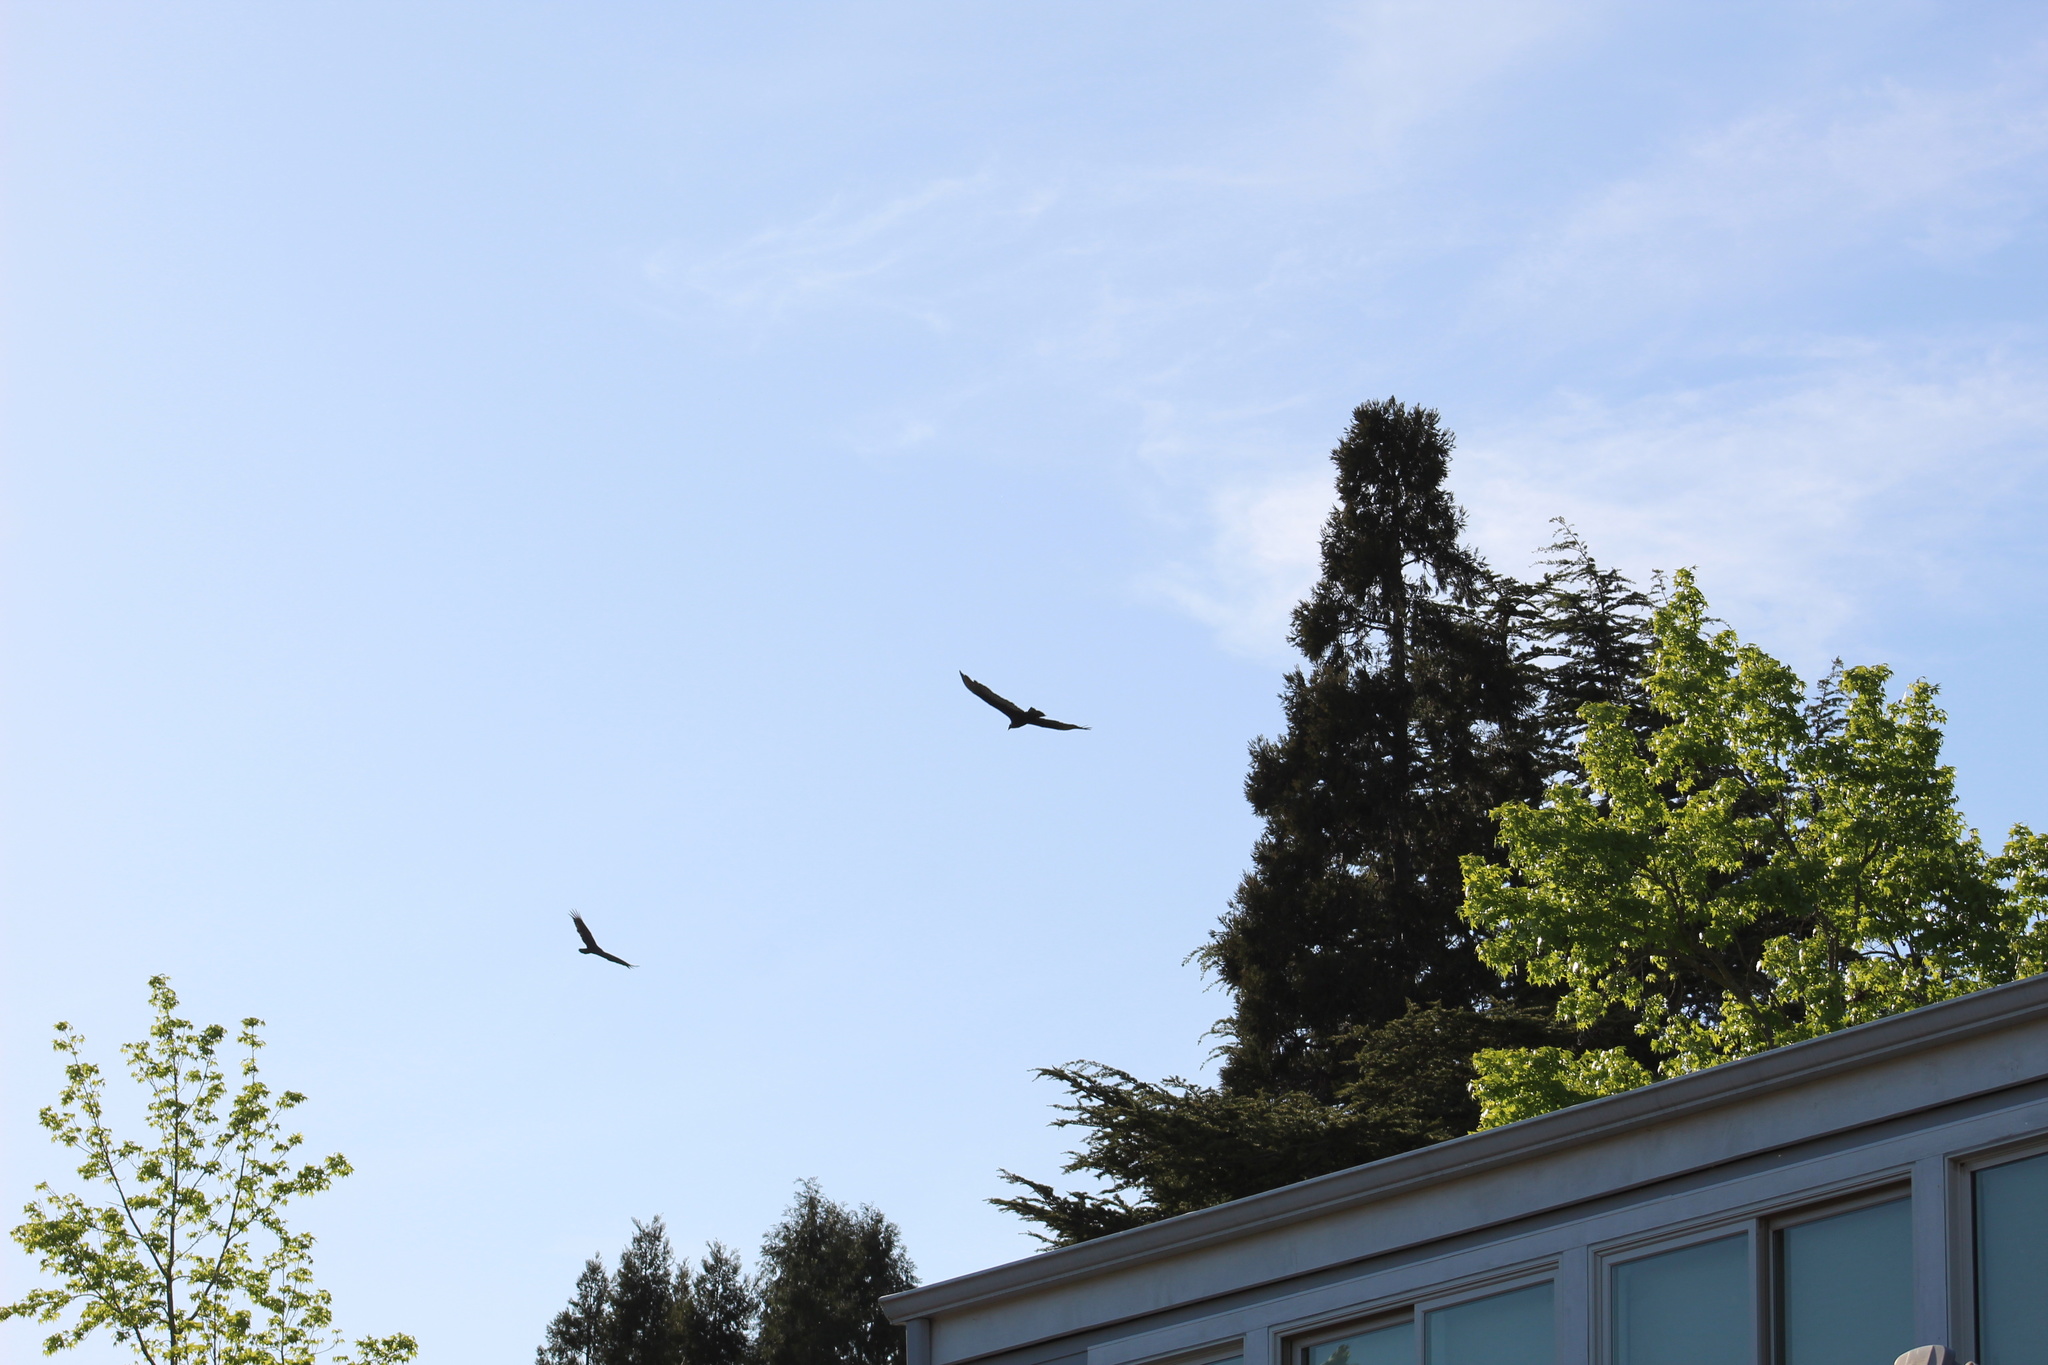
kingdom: Animalia
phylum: Chordata
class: Aves
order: Accipitriformes
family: Cathartidae
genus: Cathartes
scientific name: Cathartes aura
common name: Turkey vulture
